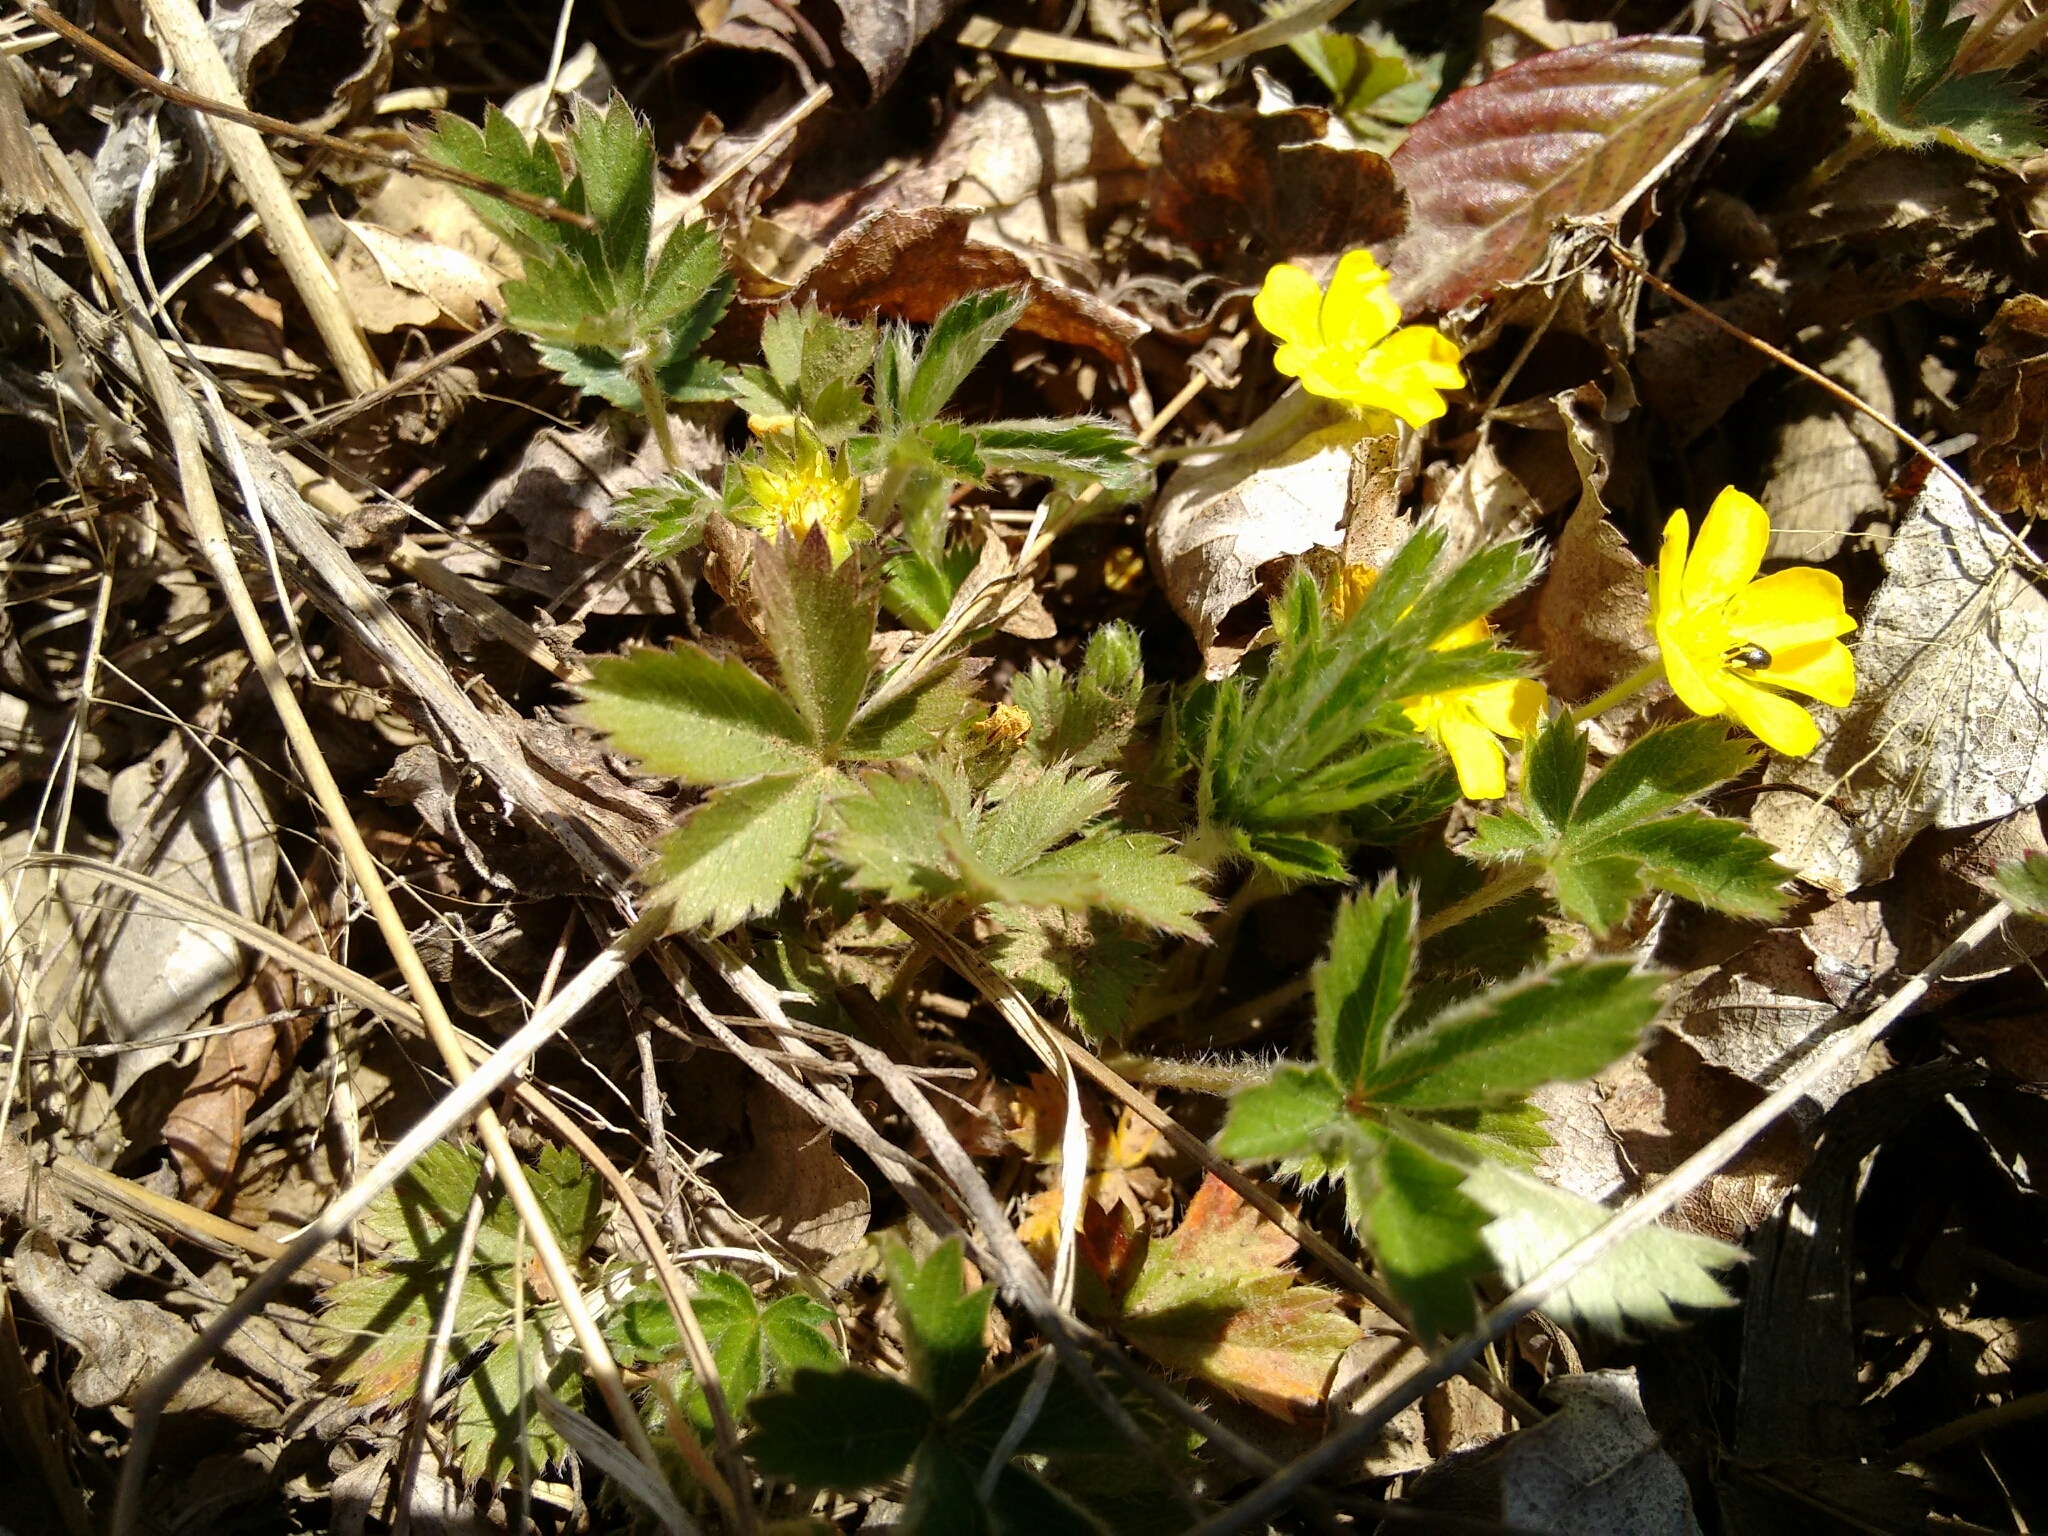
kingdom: Plantae
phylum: Tracheophyta
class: Magnoliopsida
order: Rosales
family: Rosaceae
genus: Potentilla
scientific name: Potentilla canadensis
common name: Canada cinquefoil
